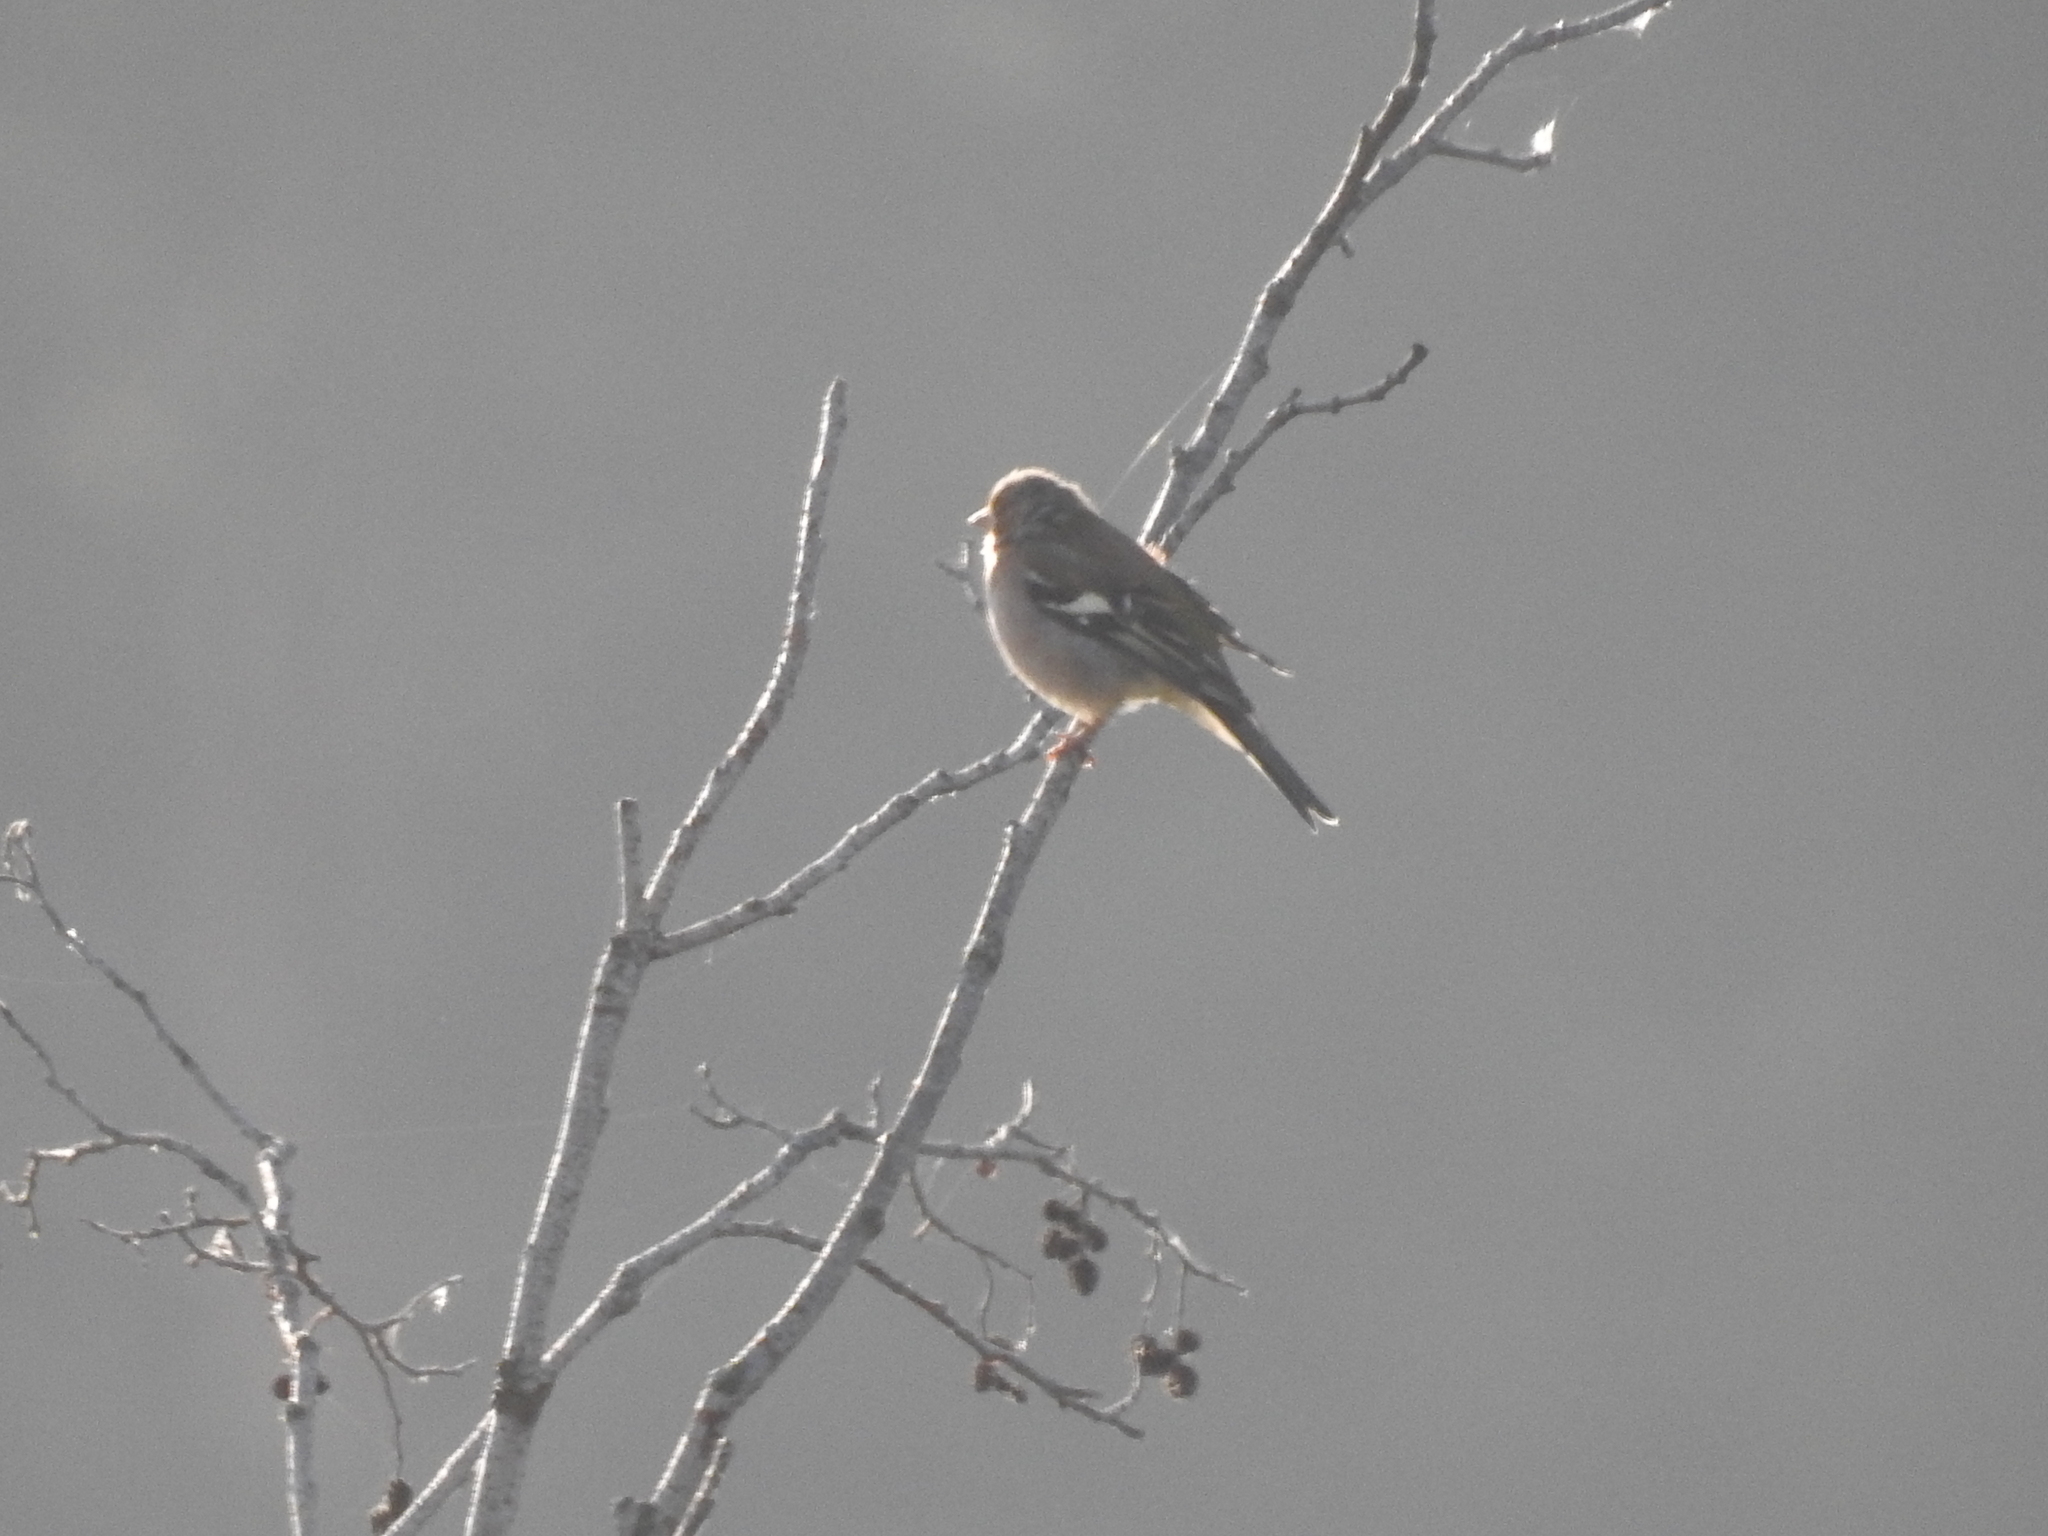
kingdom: Animalia
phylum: Chordata
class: Aves
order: Passeriformes
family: Fringillidae
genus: Fringilla
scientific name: Fringilla coelebs
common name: Common chaffinch
